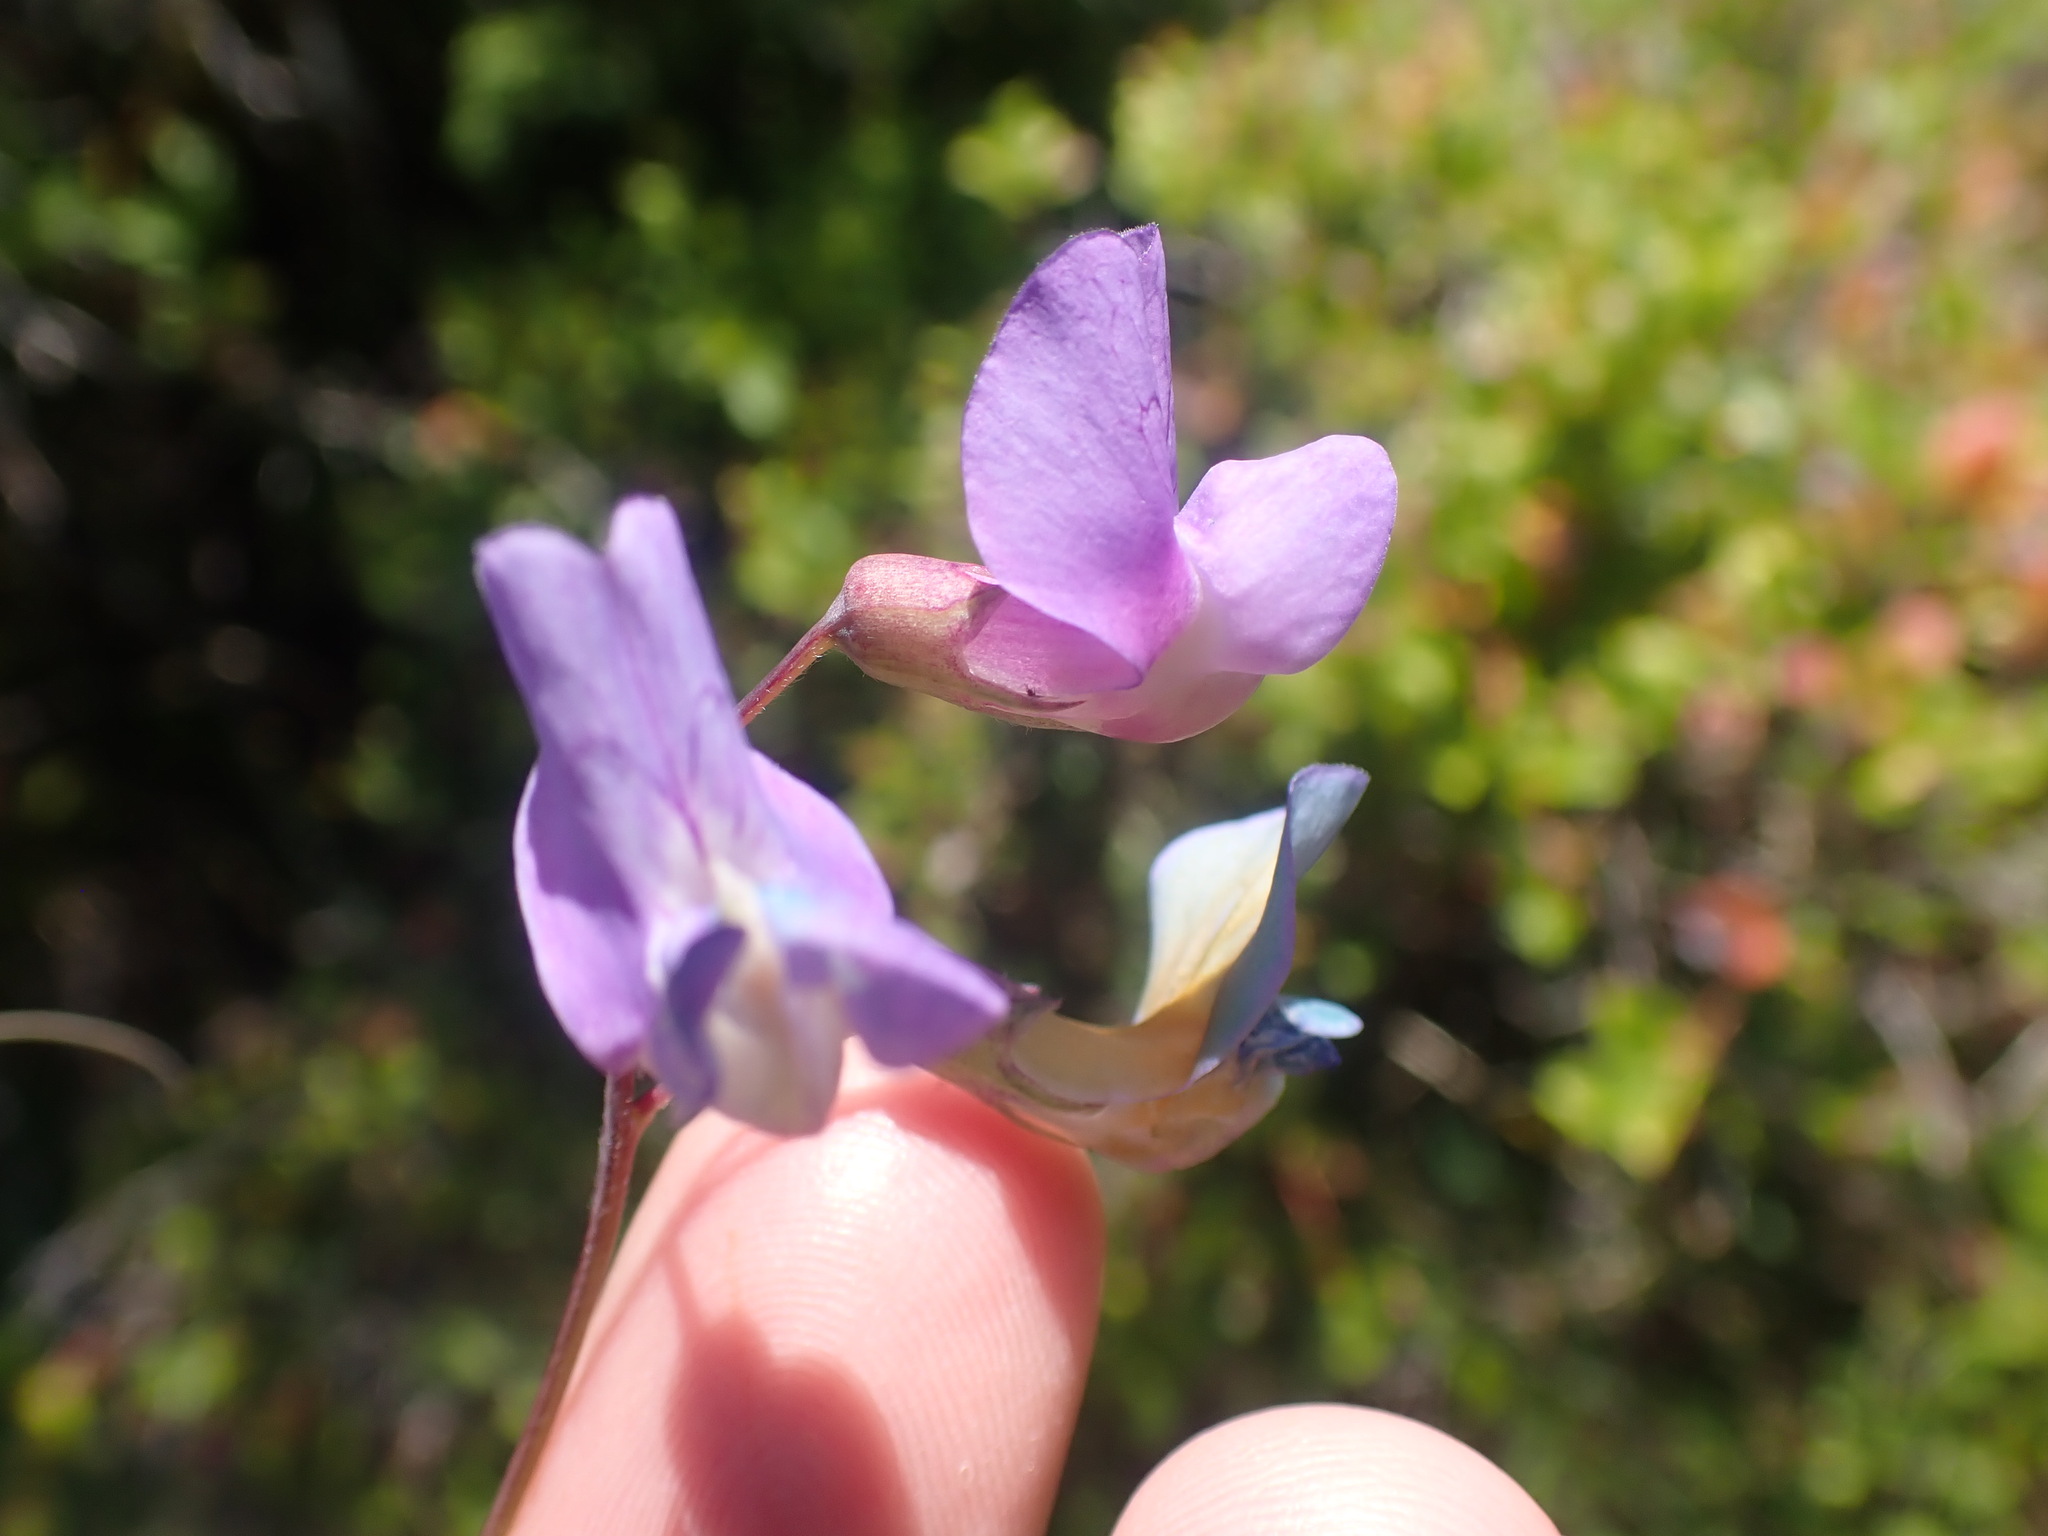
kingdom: Plantae
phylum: Tracheophyta
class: Magnoliopsida
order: Fabales
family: Fabaceae
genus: Lathyrus
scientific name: Lathyrus palustris
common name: Marsh pea
